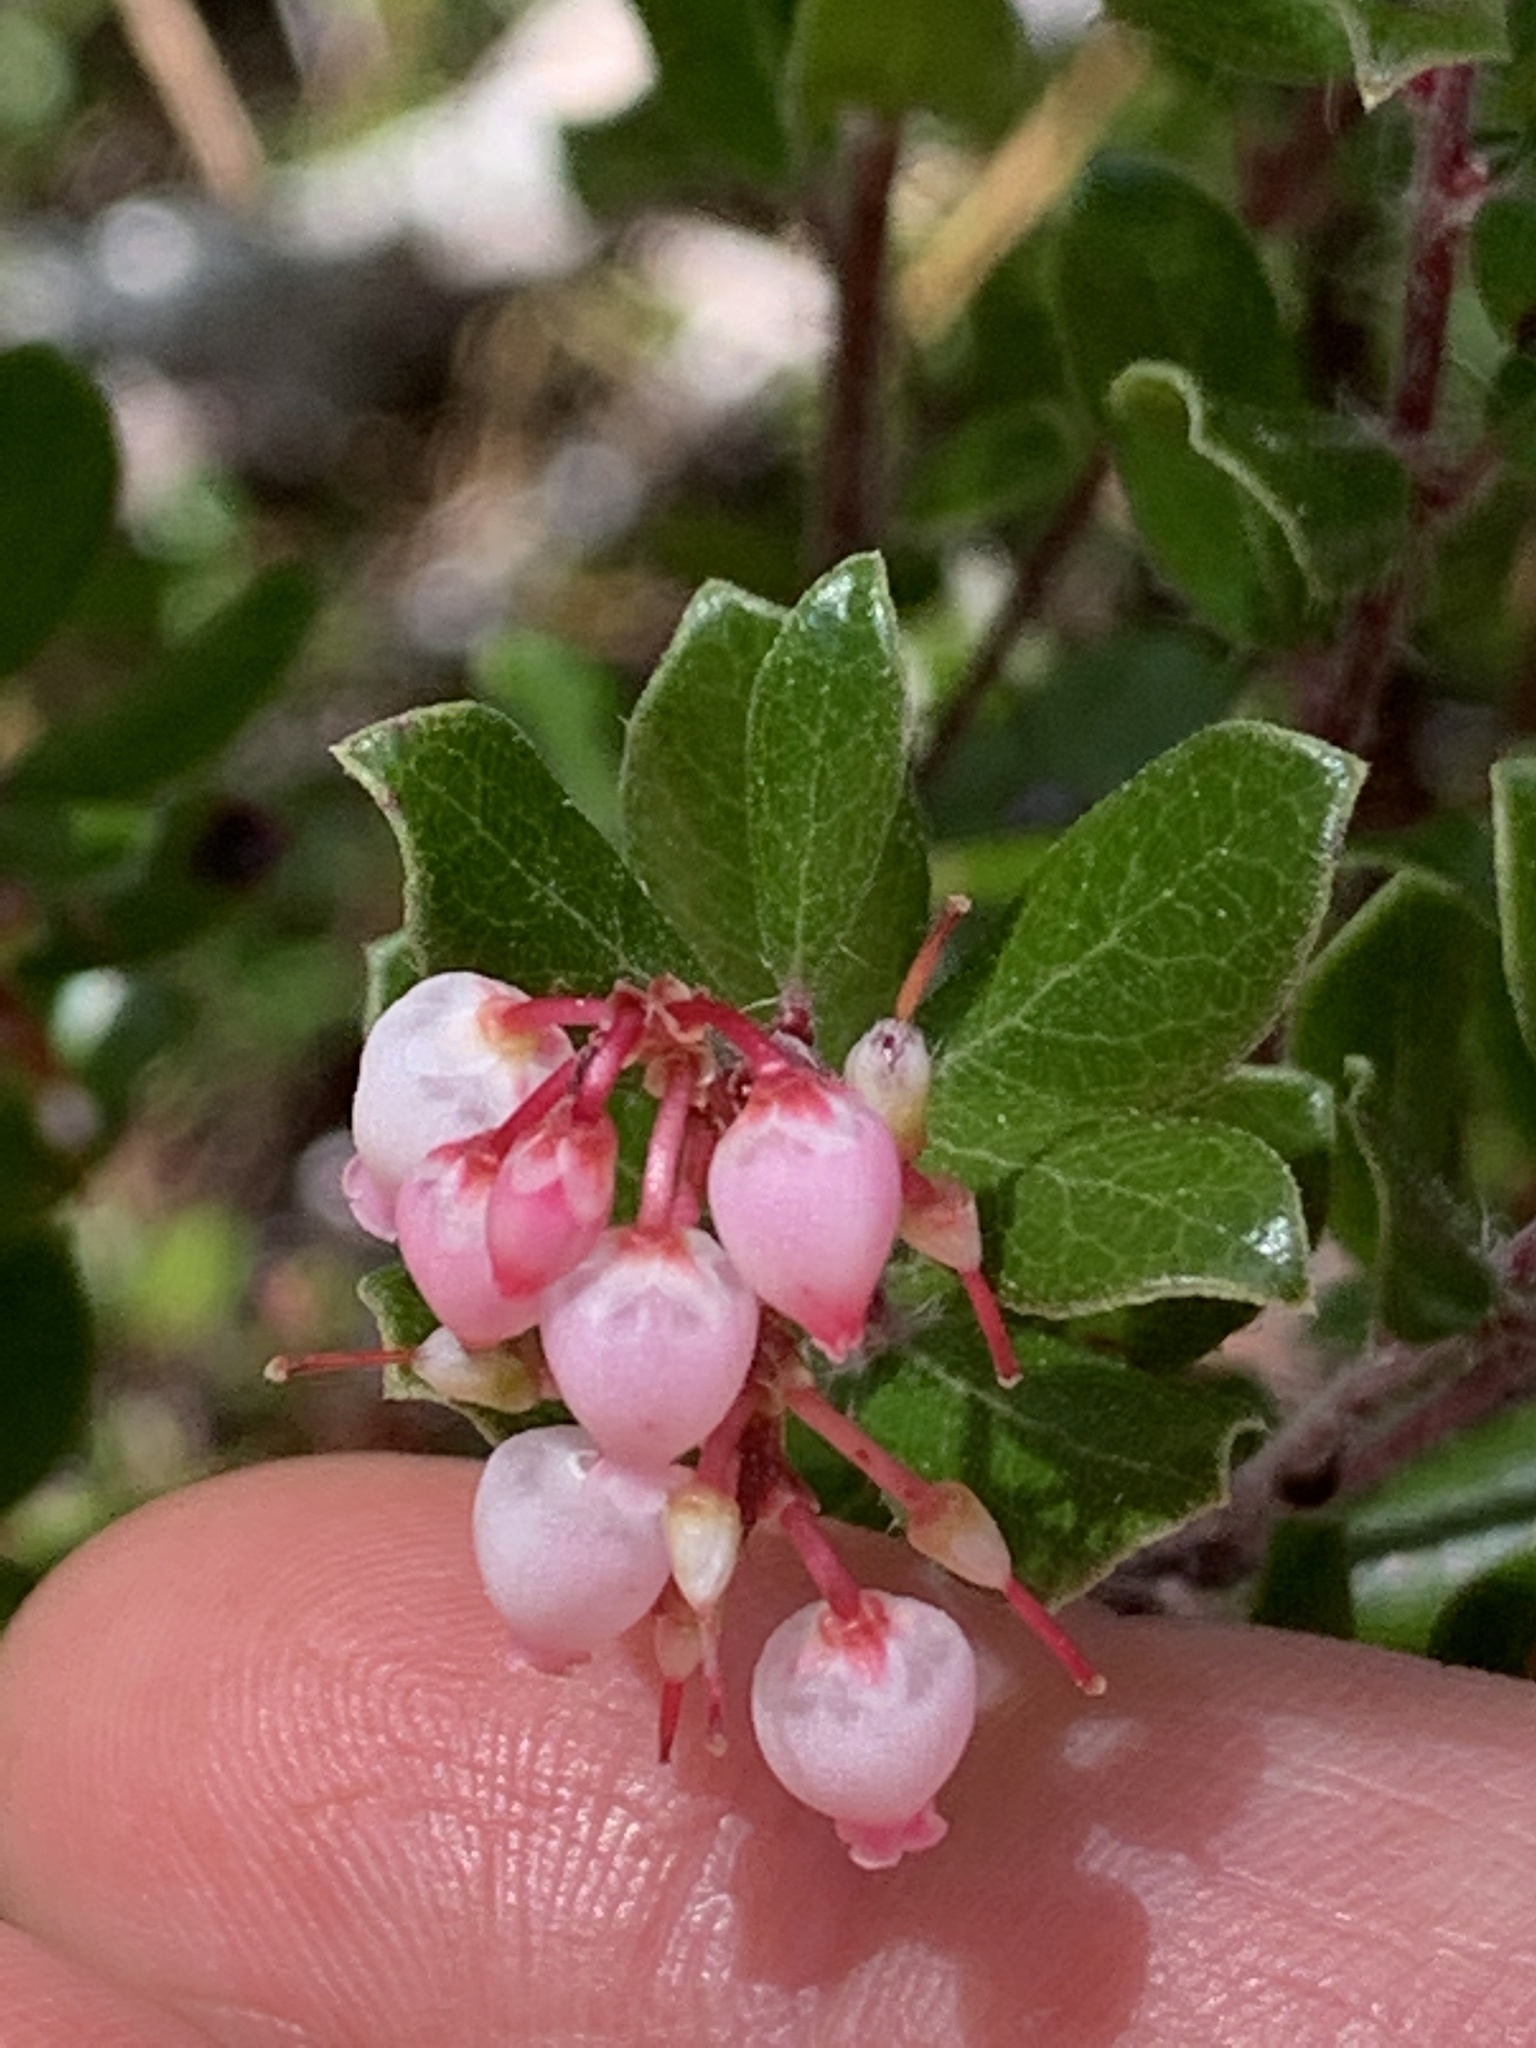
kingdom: Plantae
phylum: Tracheophyta
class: Magnoliopsida
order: Ericales
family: Ericaceae
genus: Arctostaphylos
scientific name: Arctostaphylos nummularia
